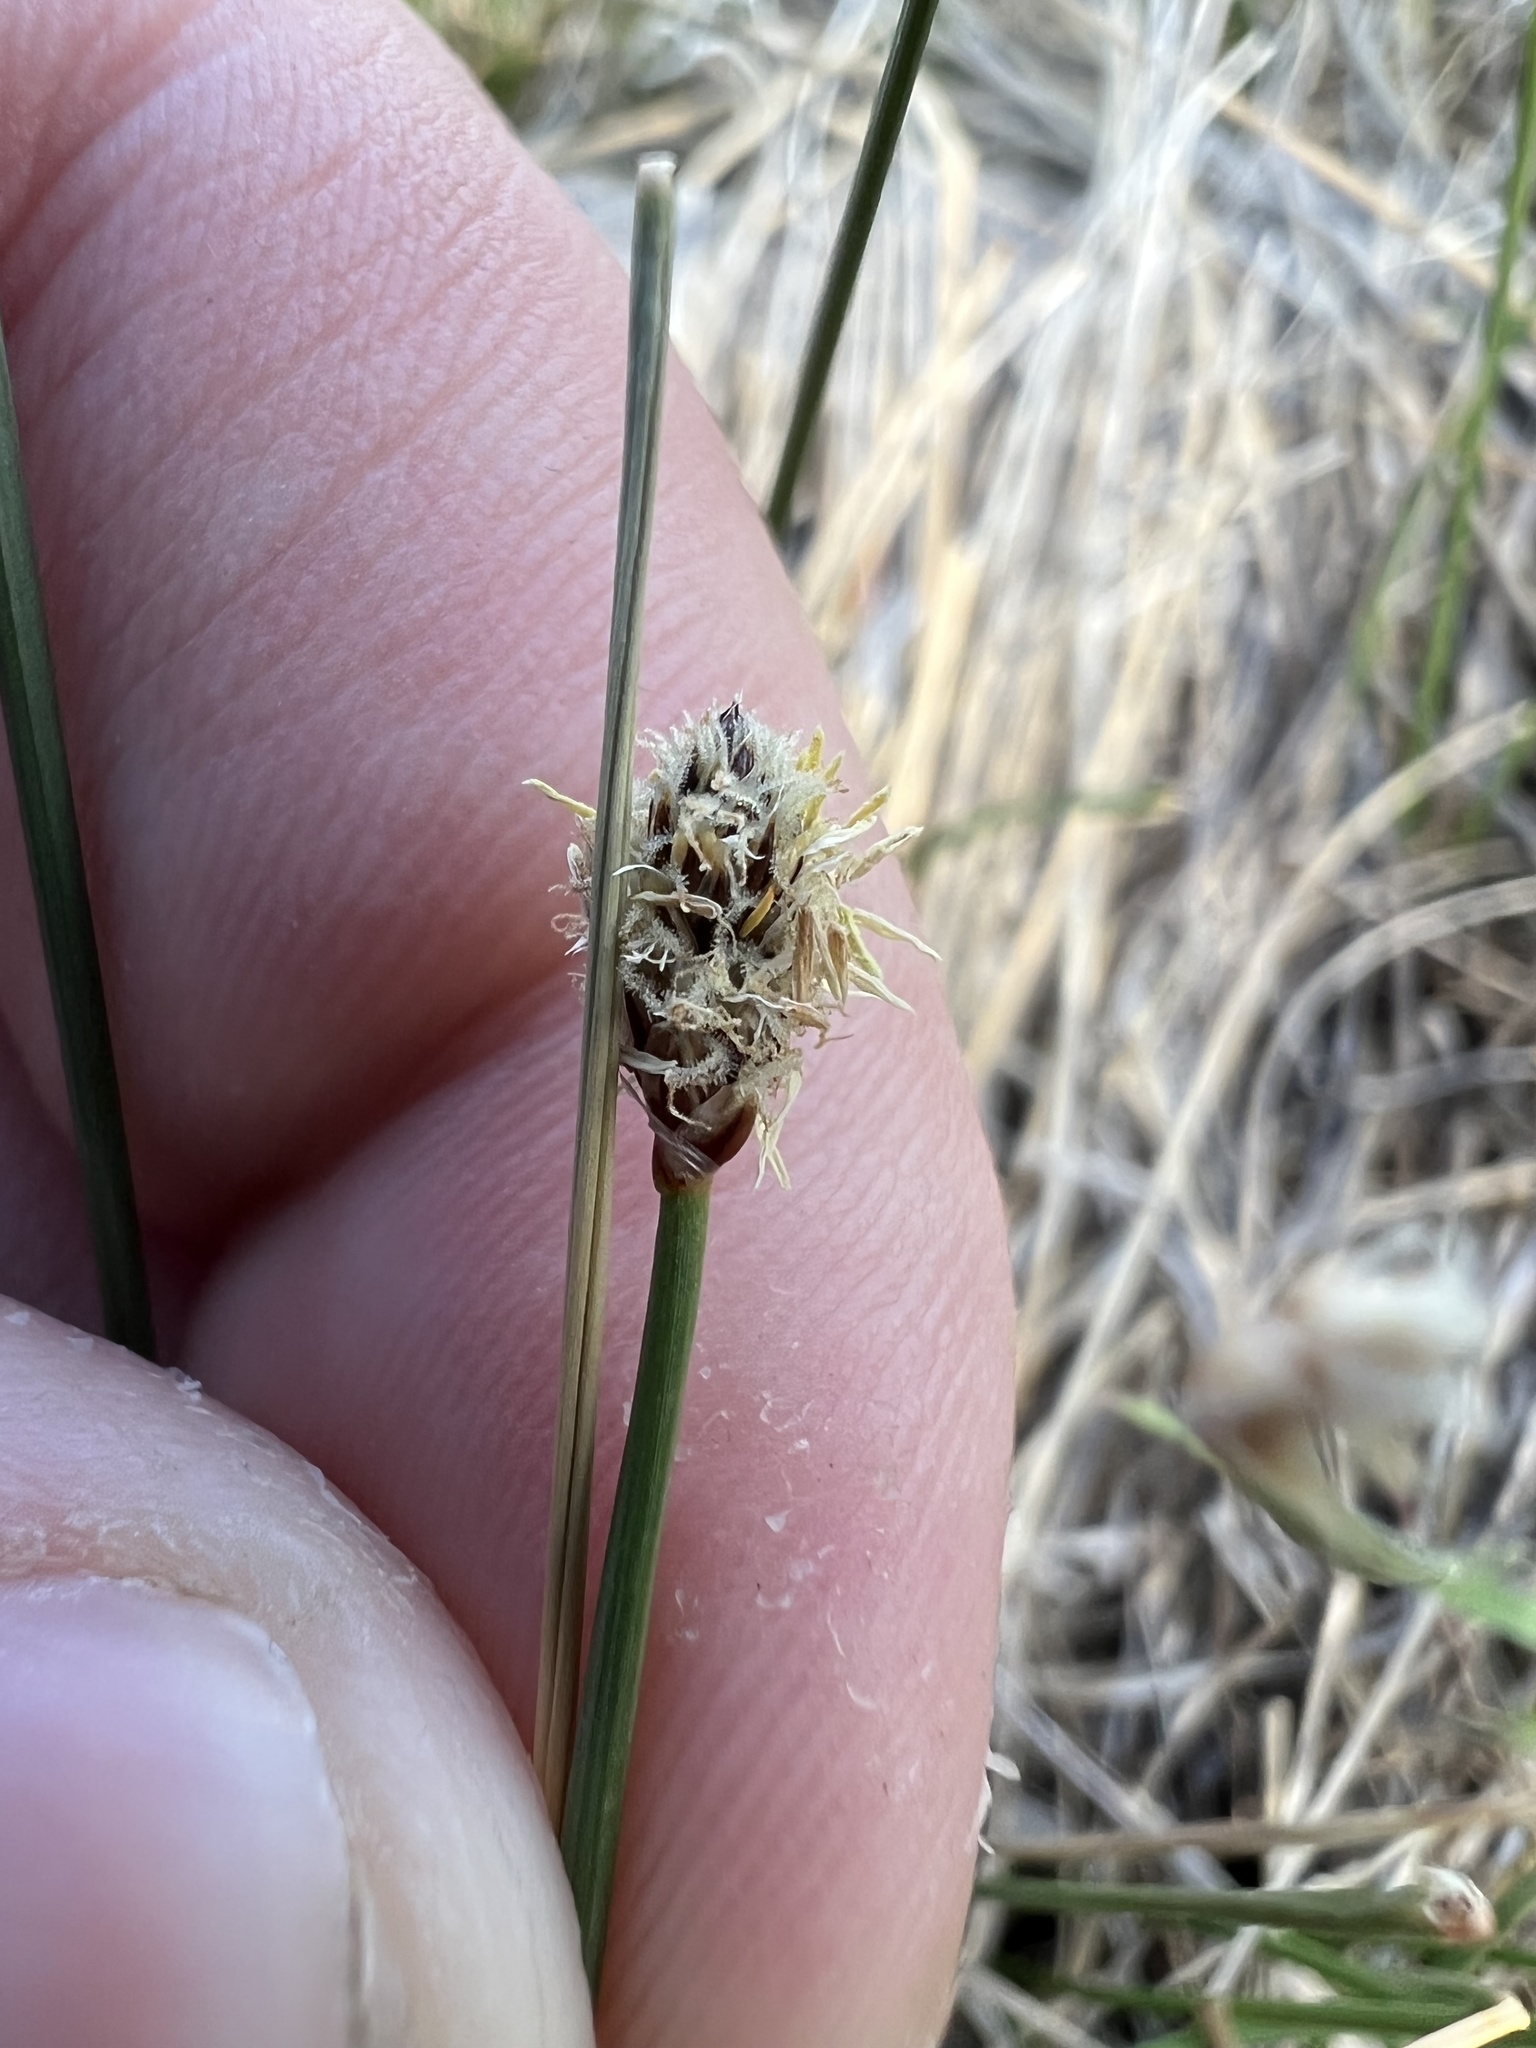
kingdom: Plantae
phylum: Tracheophyta
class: Liliopsida
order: Poales
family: Cyperaceae
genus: Eleocharis
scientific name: Eleocharis palustris
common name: Common spike-rush
